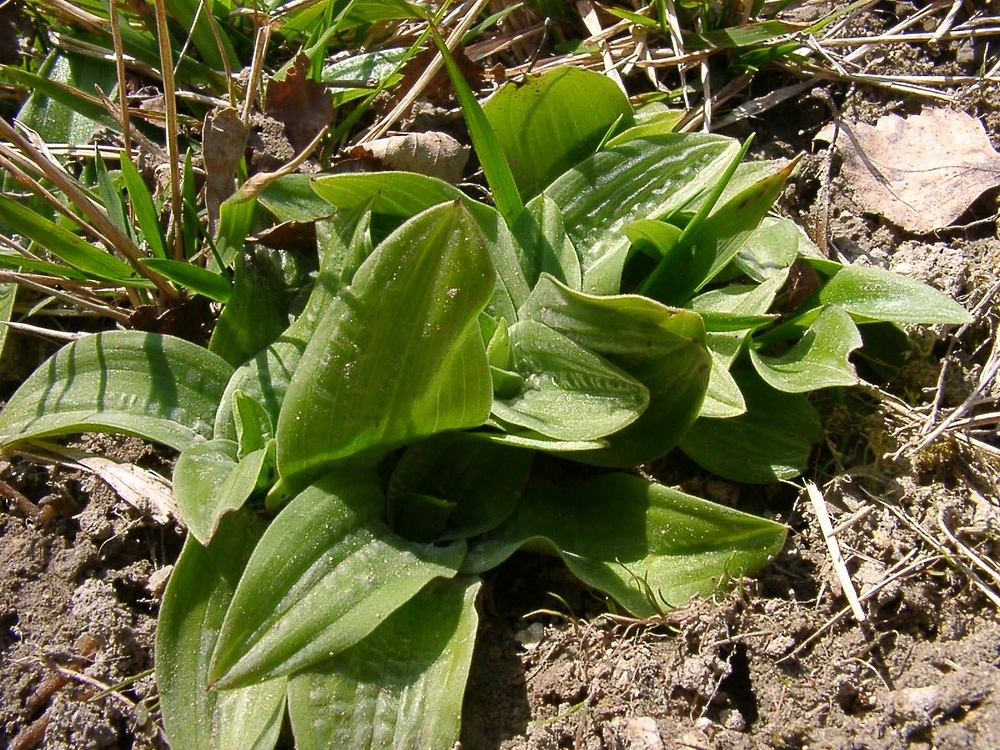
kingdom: Plantae
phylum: Tracheophyta
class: Liliopsida
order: Asparagales
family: Orchidaceae
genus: Orchis
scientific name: Orchis anthropophora
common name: Man orchid
